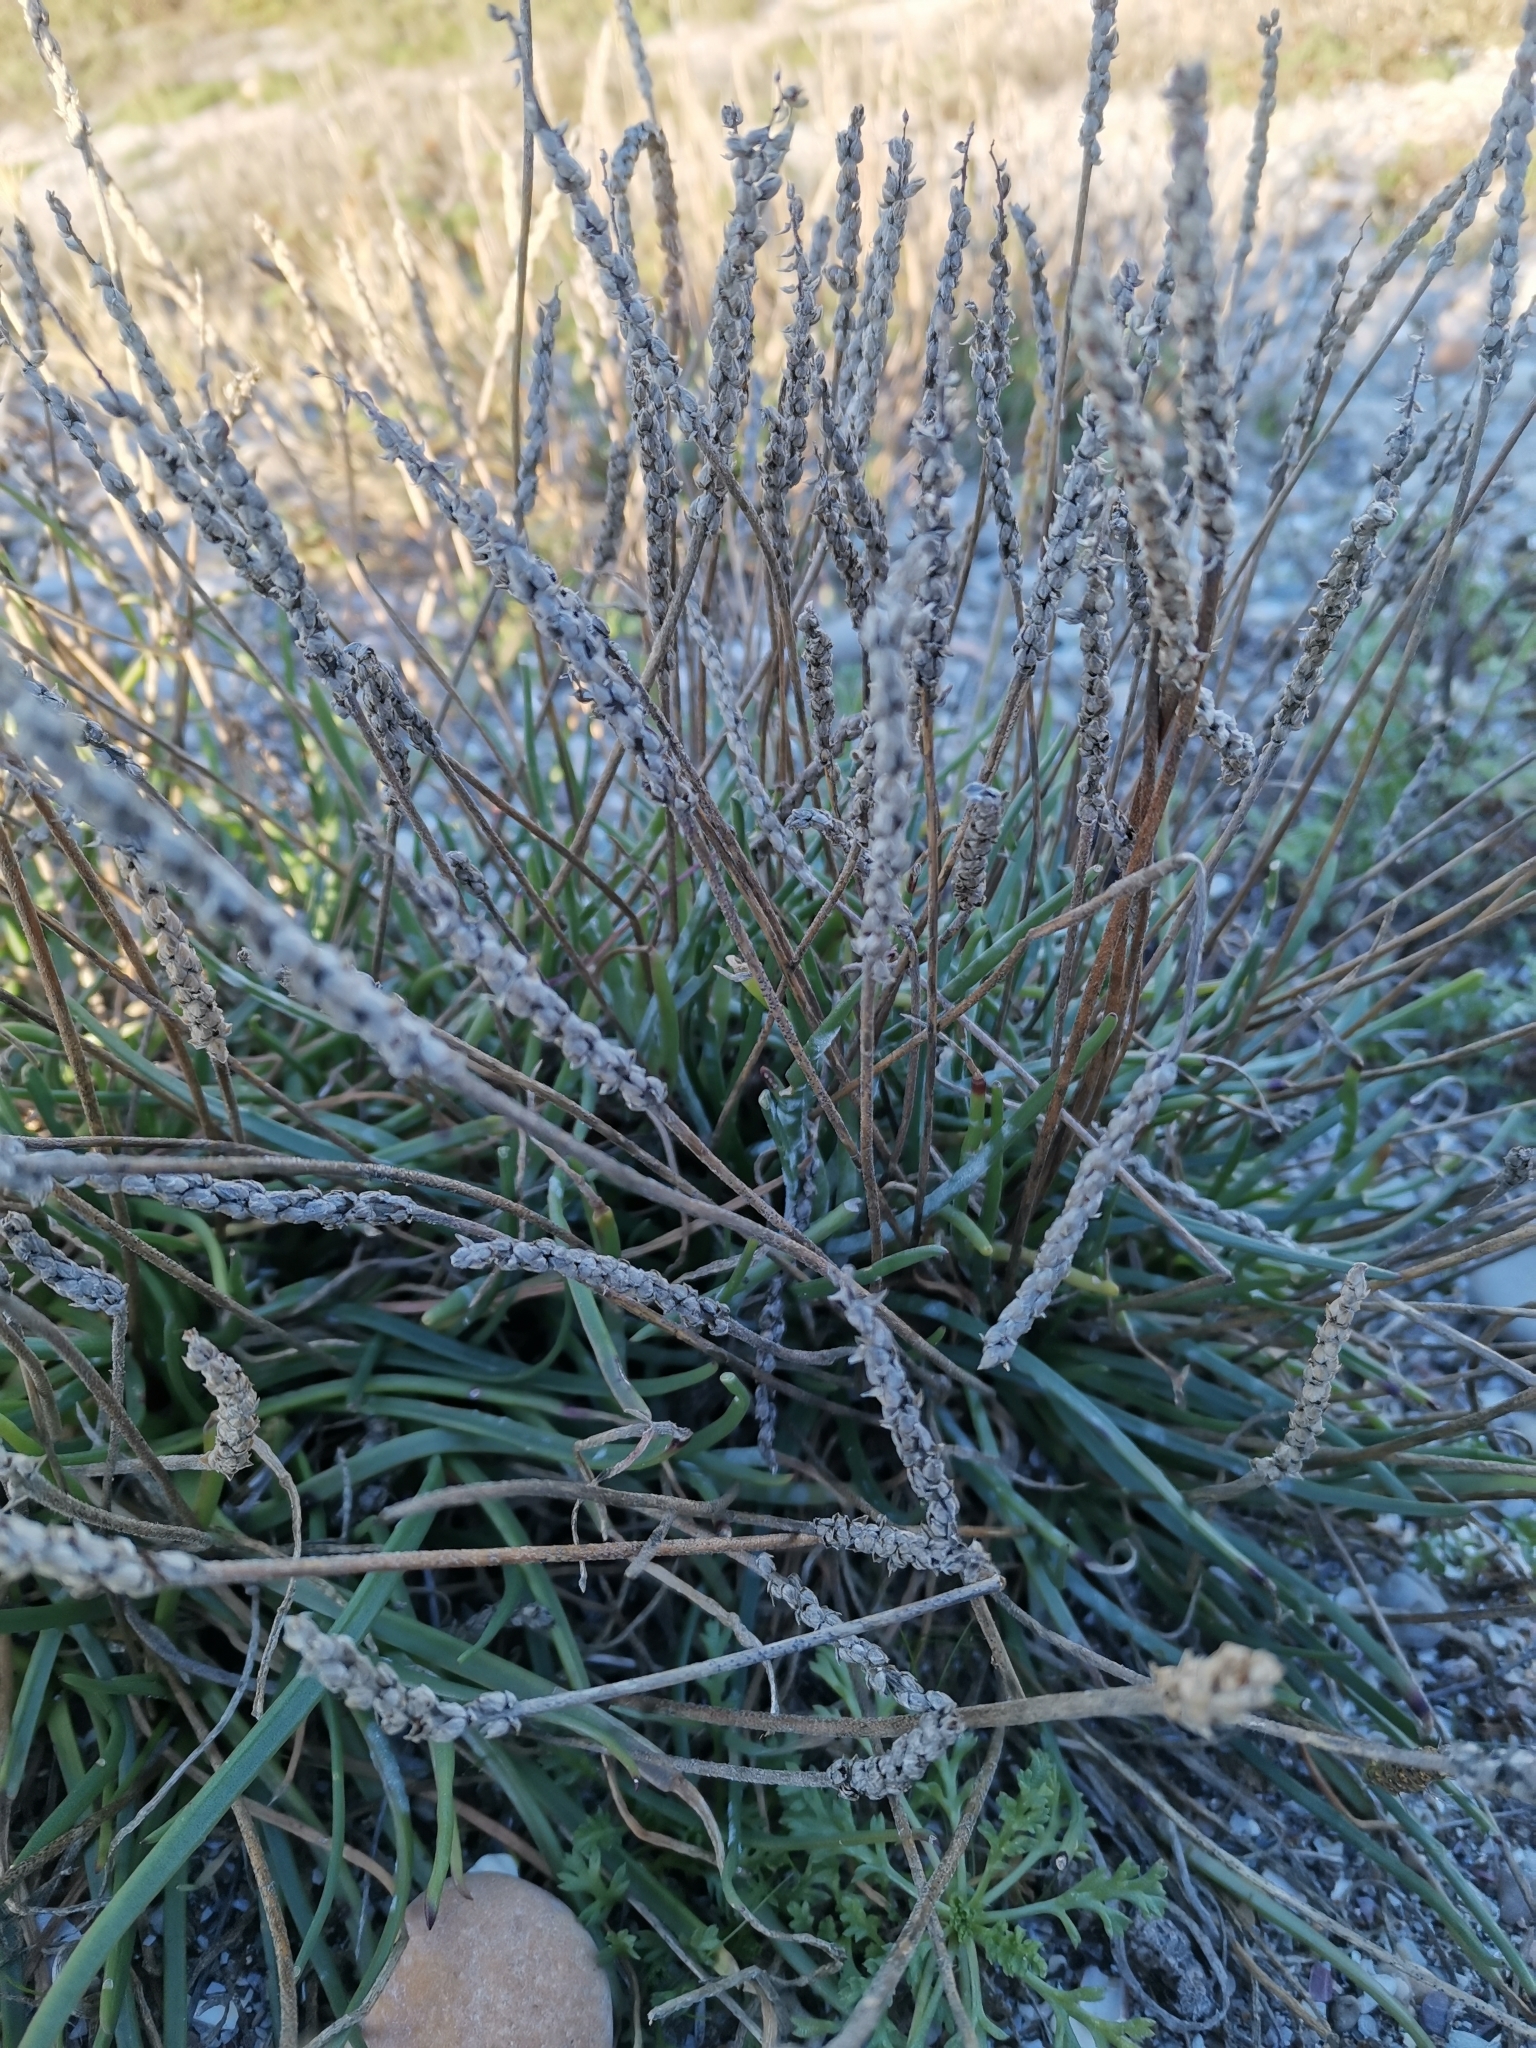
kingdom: Plantae
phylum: Tracheophyta
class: Magnoliopsida
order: Lamiales
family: Plantaginaceae
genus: Plantago
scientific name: Plantago maritima
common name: Sea plantain
